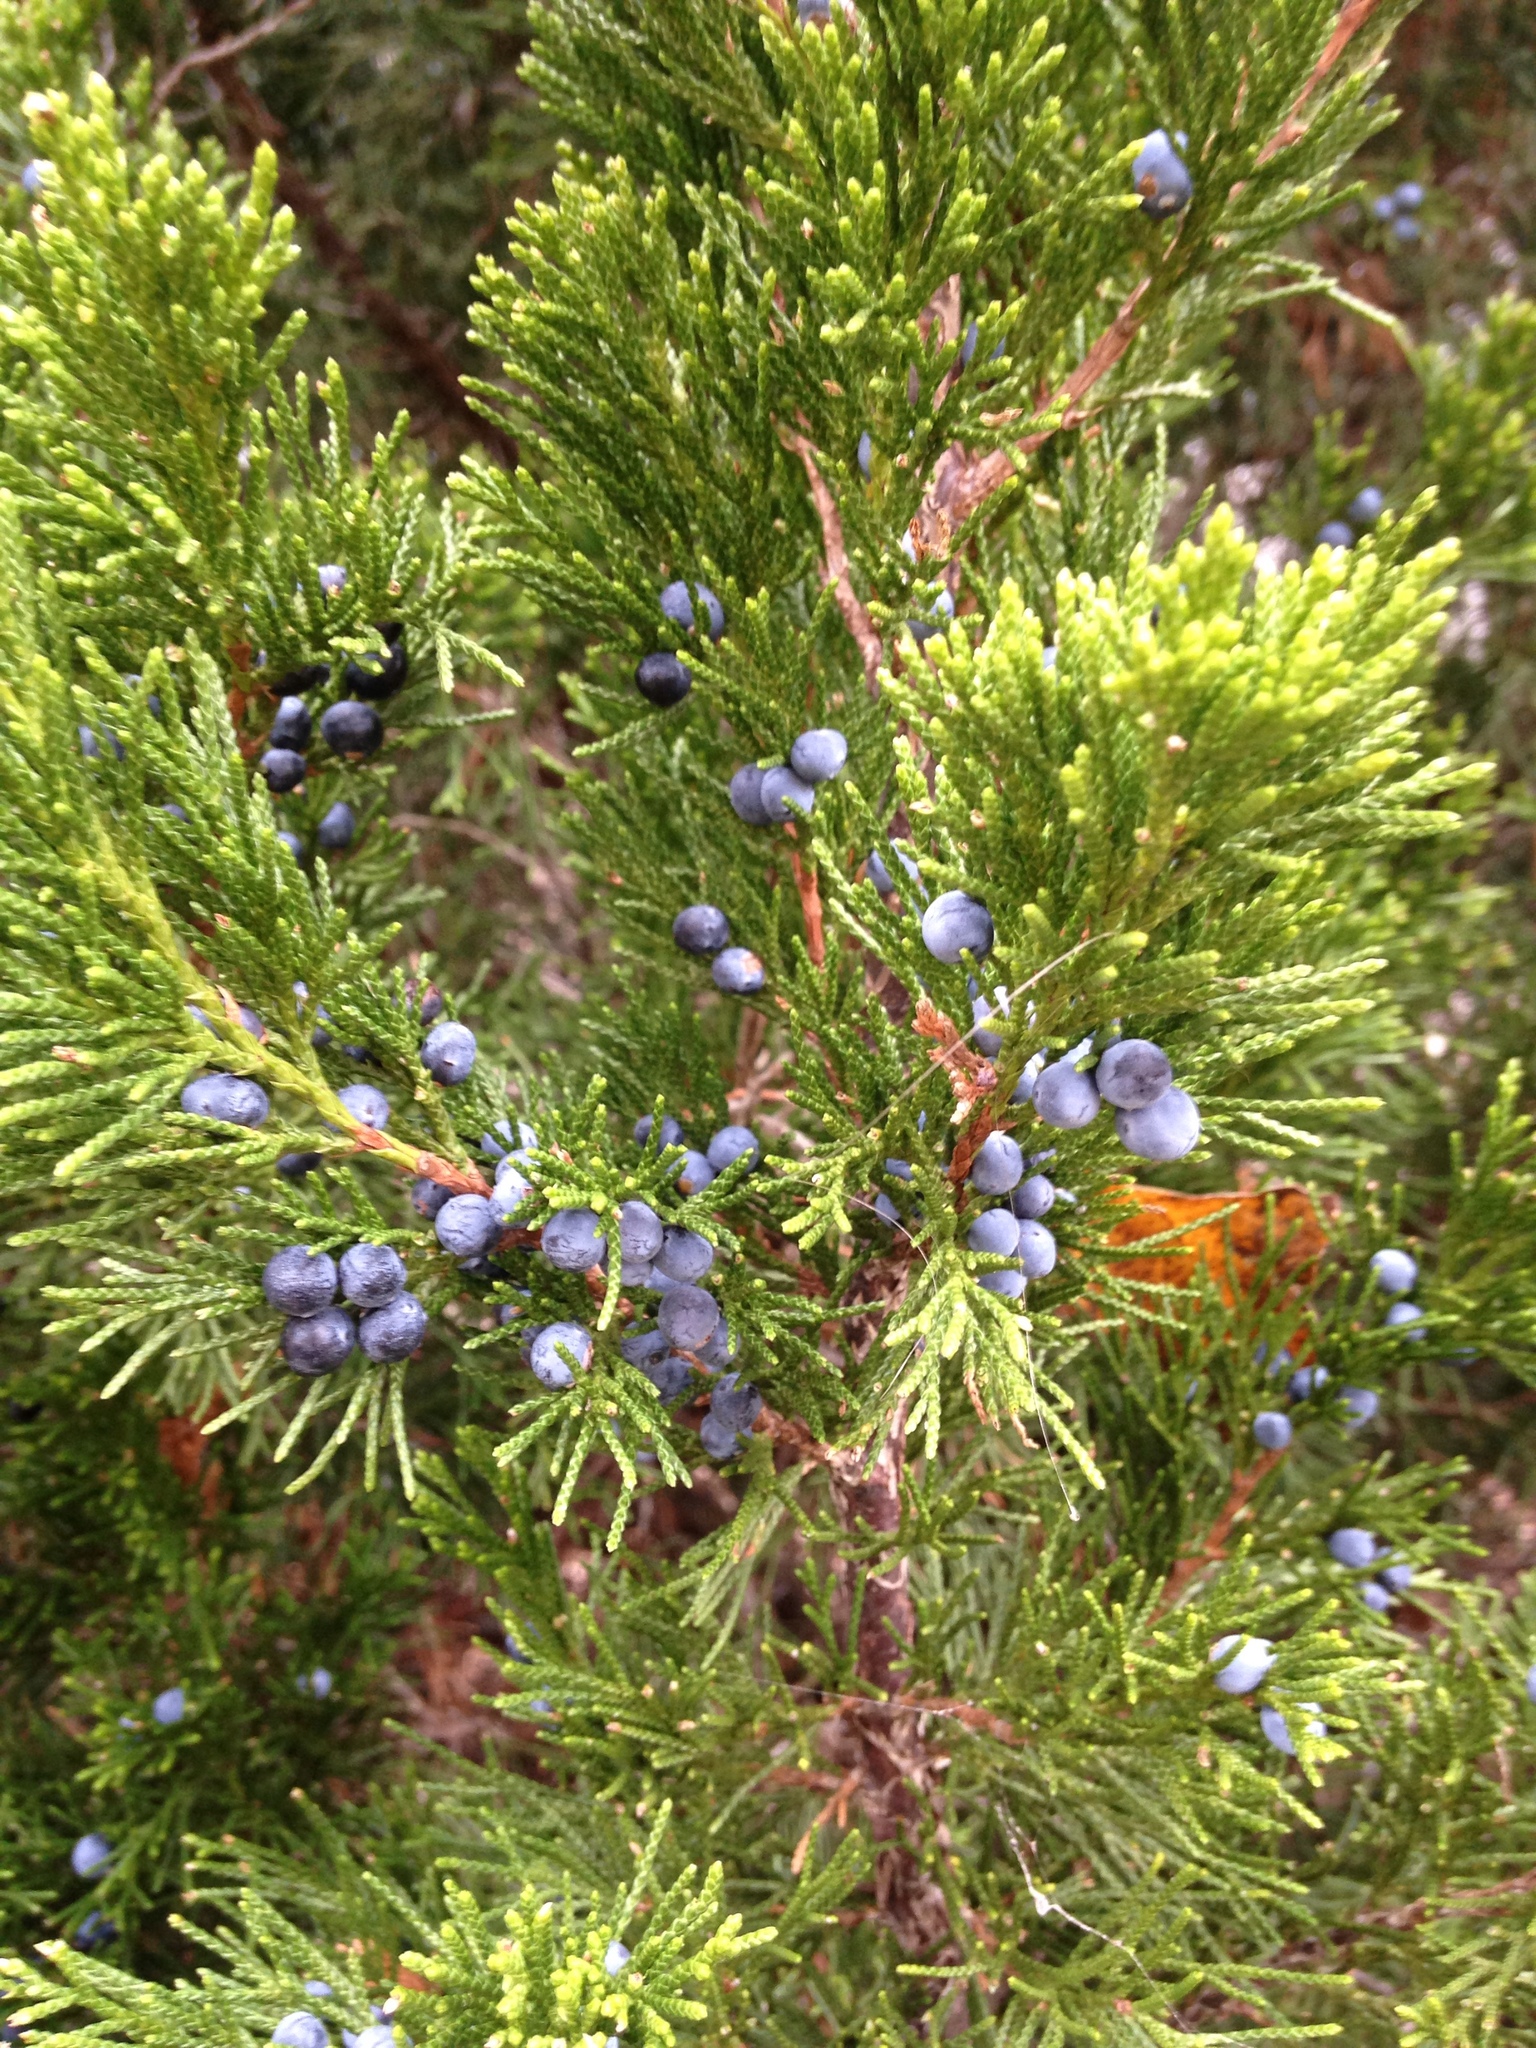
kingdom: Plantae
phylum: Tracheophyta
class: Pinopsida
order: Pinales
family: Cupressaceae
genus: Juniperus
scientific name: Juniperus virginiana
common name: Red juniper
